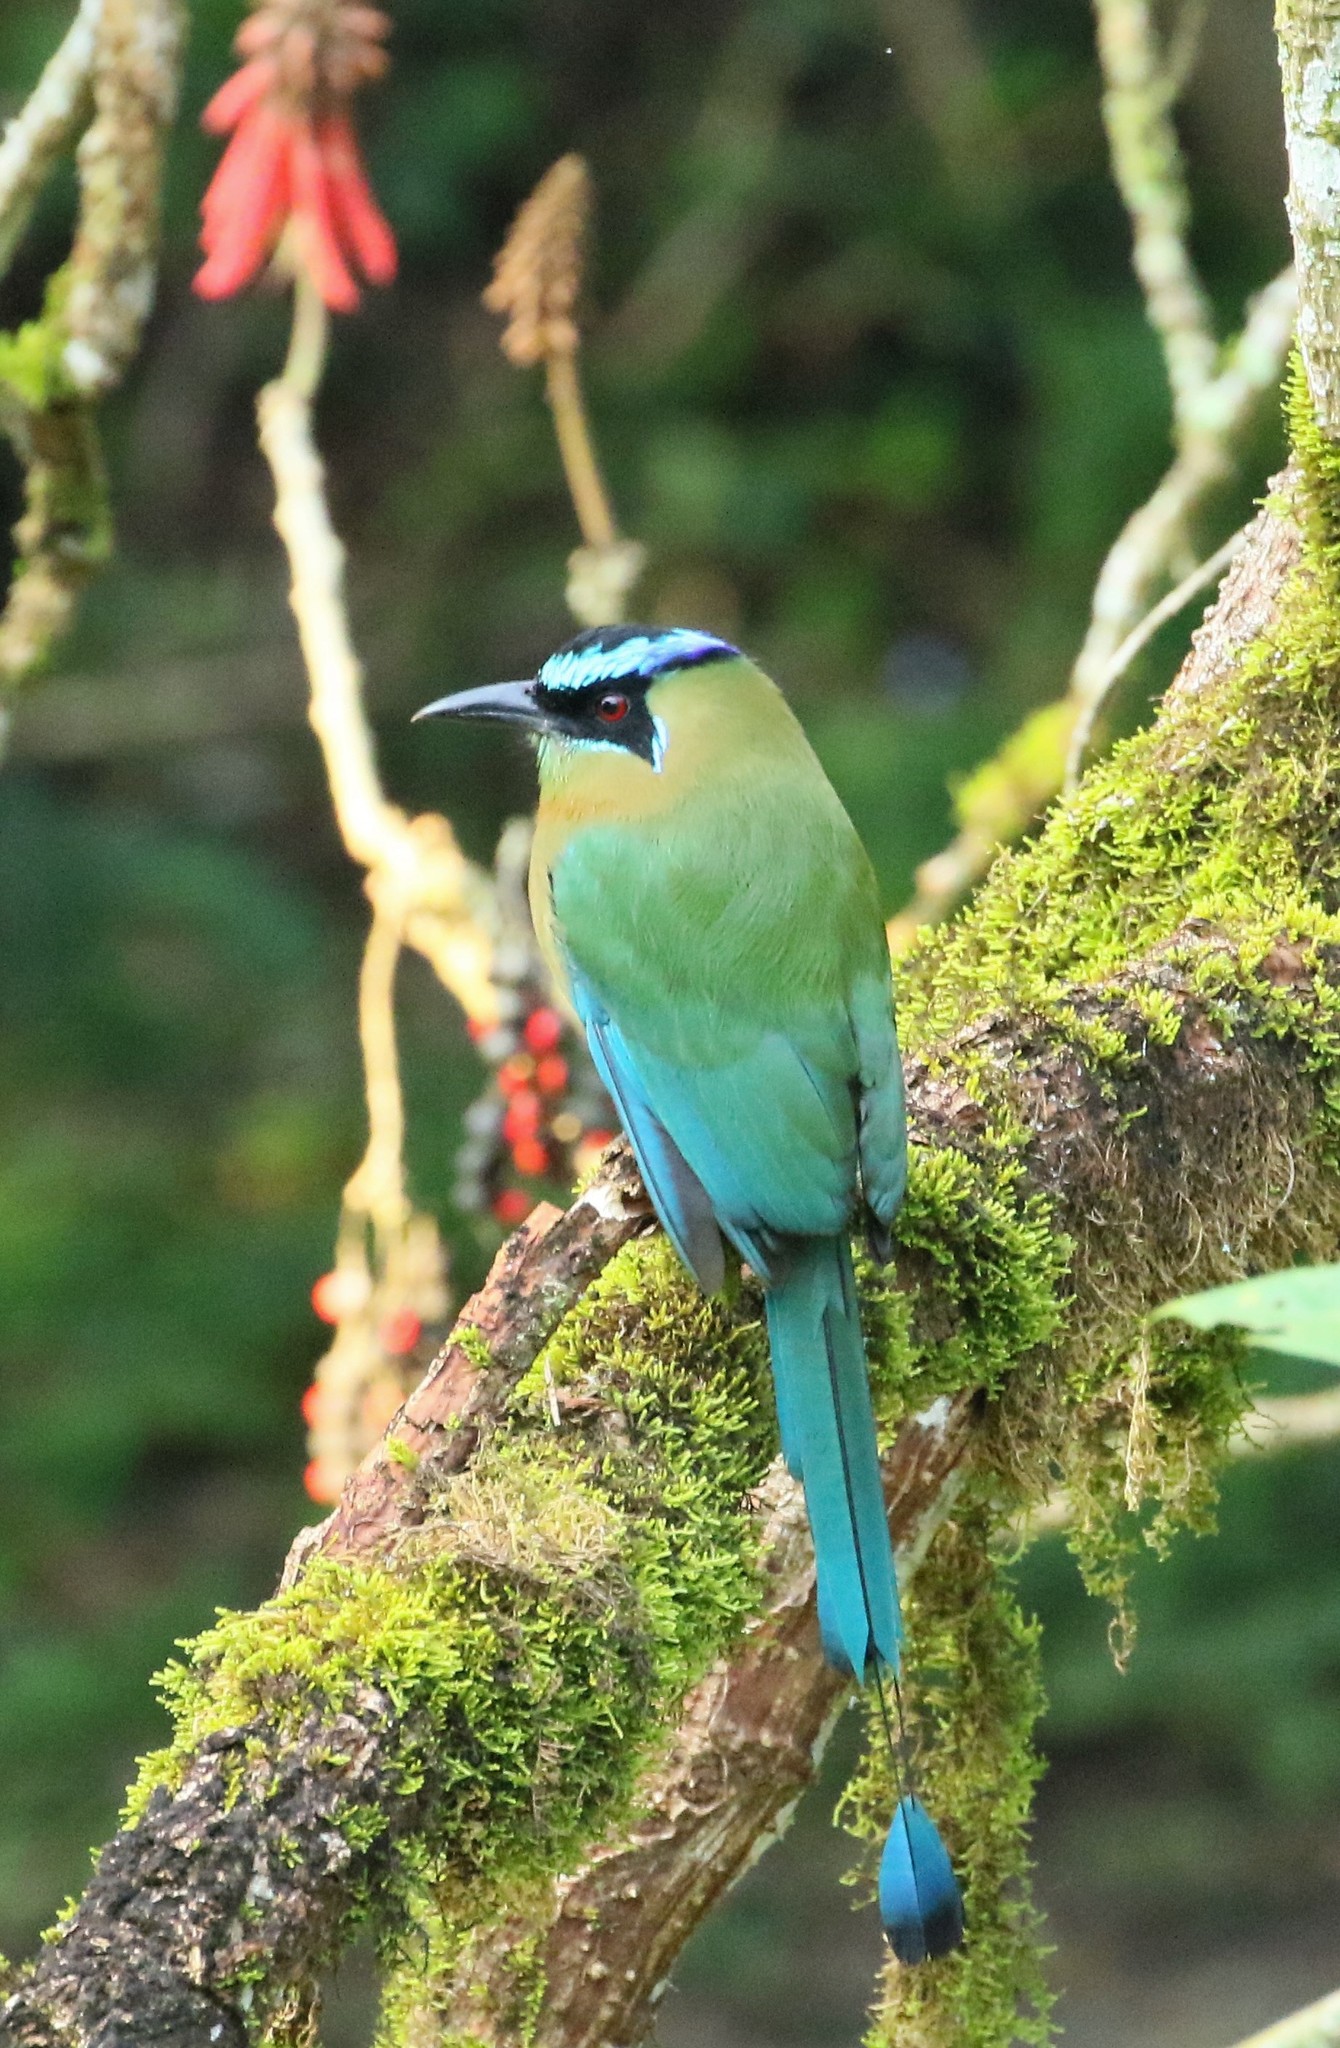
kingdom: Animalia
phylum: Chordata
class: Aves
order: Coraciiformes
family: Momotidae
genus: Momotus
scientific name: Momotus lessonii
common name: Lesson's motmot
